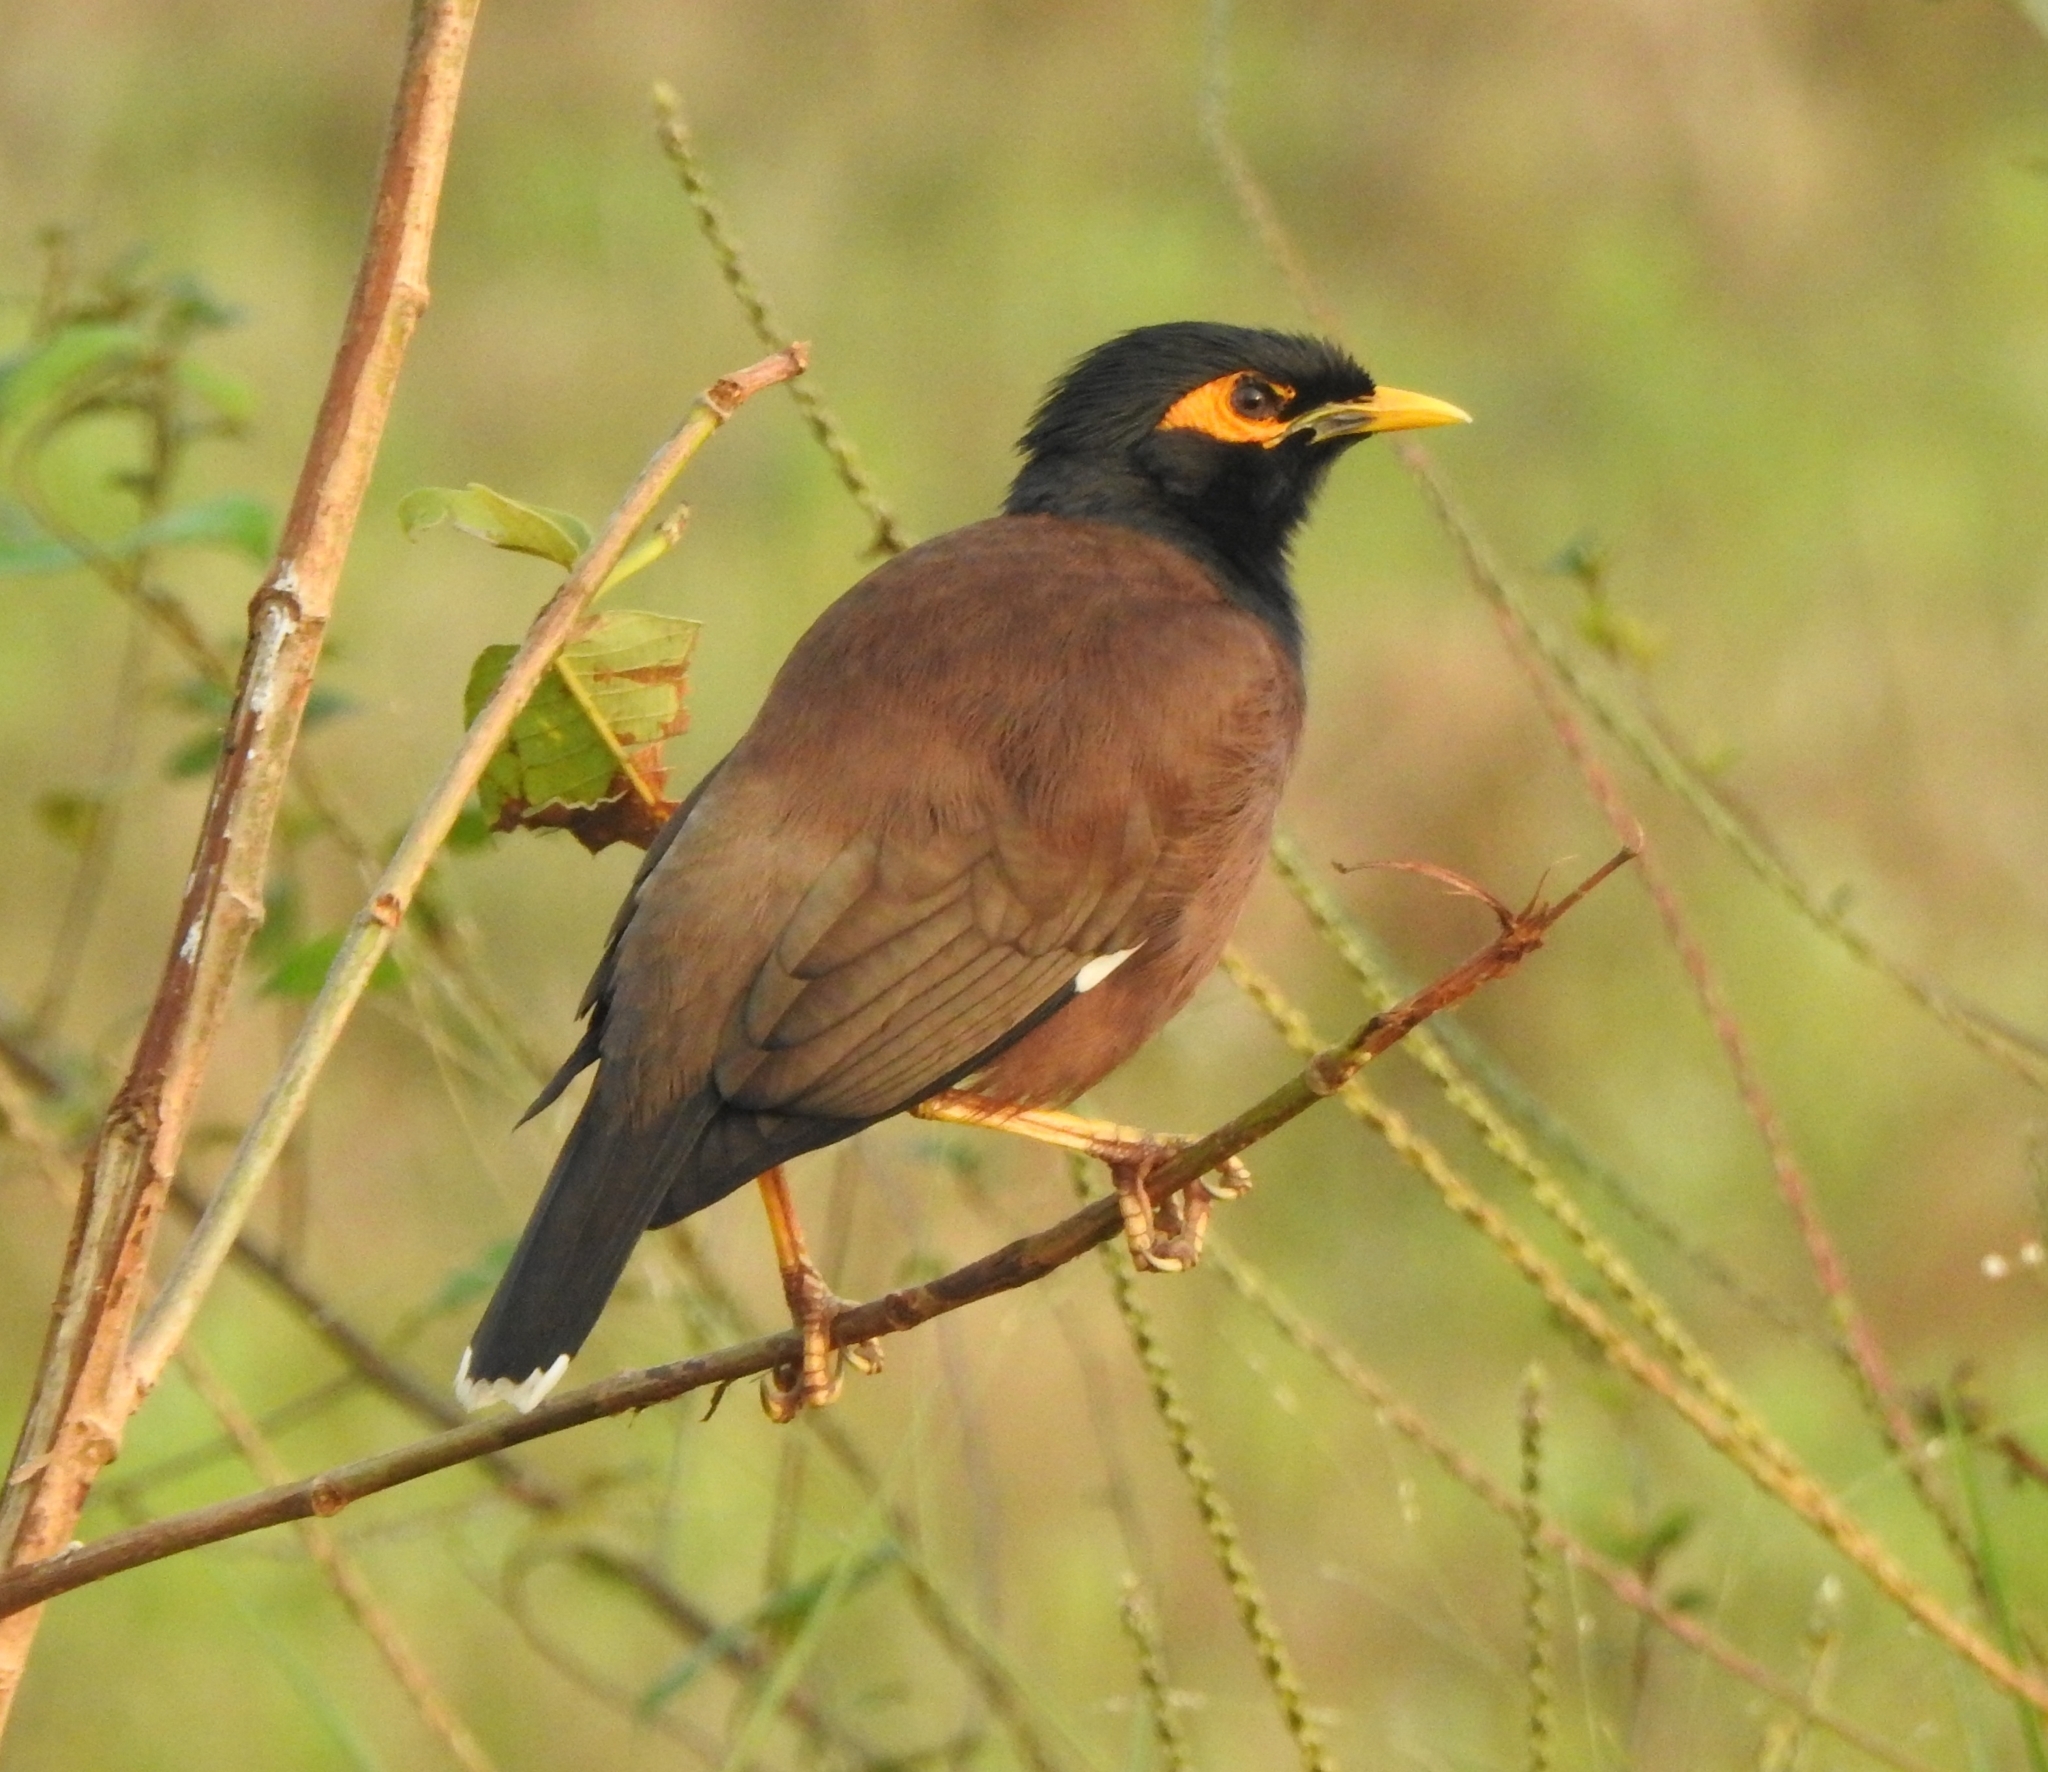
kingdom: Animalia
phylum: Chordata
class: Aves
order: Passeriformes
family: Sturnidae
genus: Acridotheres
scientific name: Acridotheres tristis
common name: Common myna
